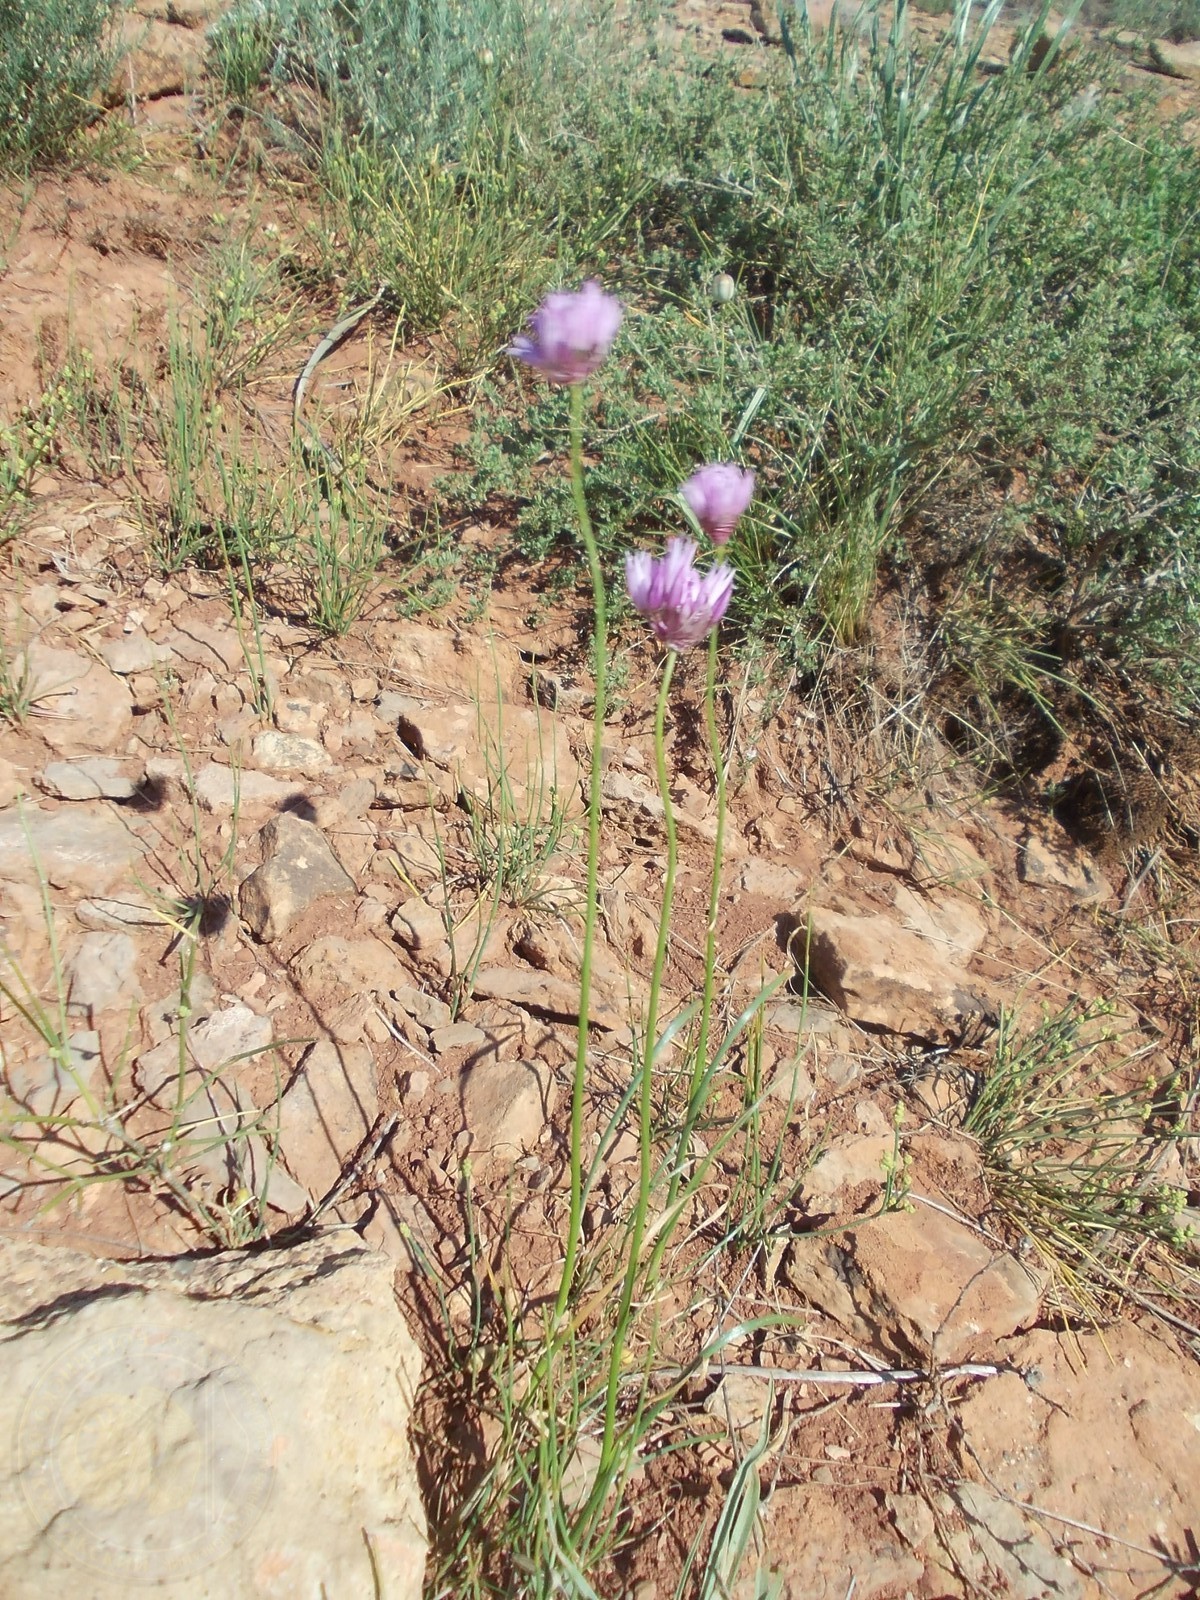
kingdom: Plantae
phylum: Tracheophyta
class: Liliopsida
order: Asparagales
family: Amaryllidaceae
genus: Allium
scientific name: Allium inderiense
